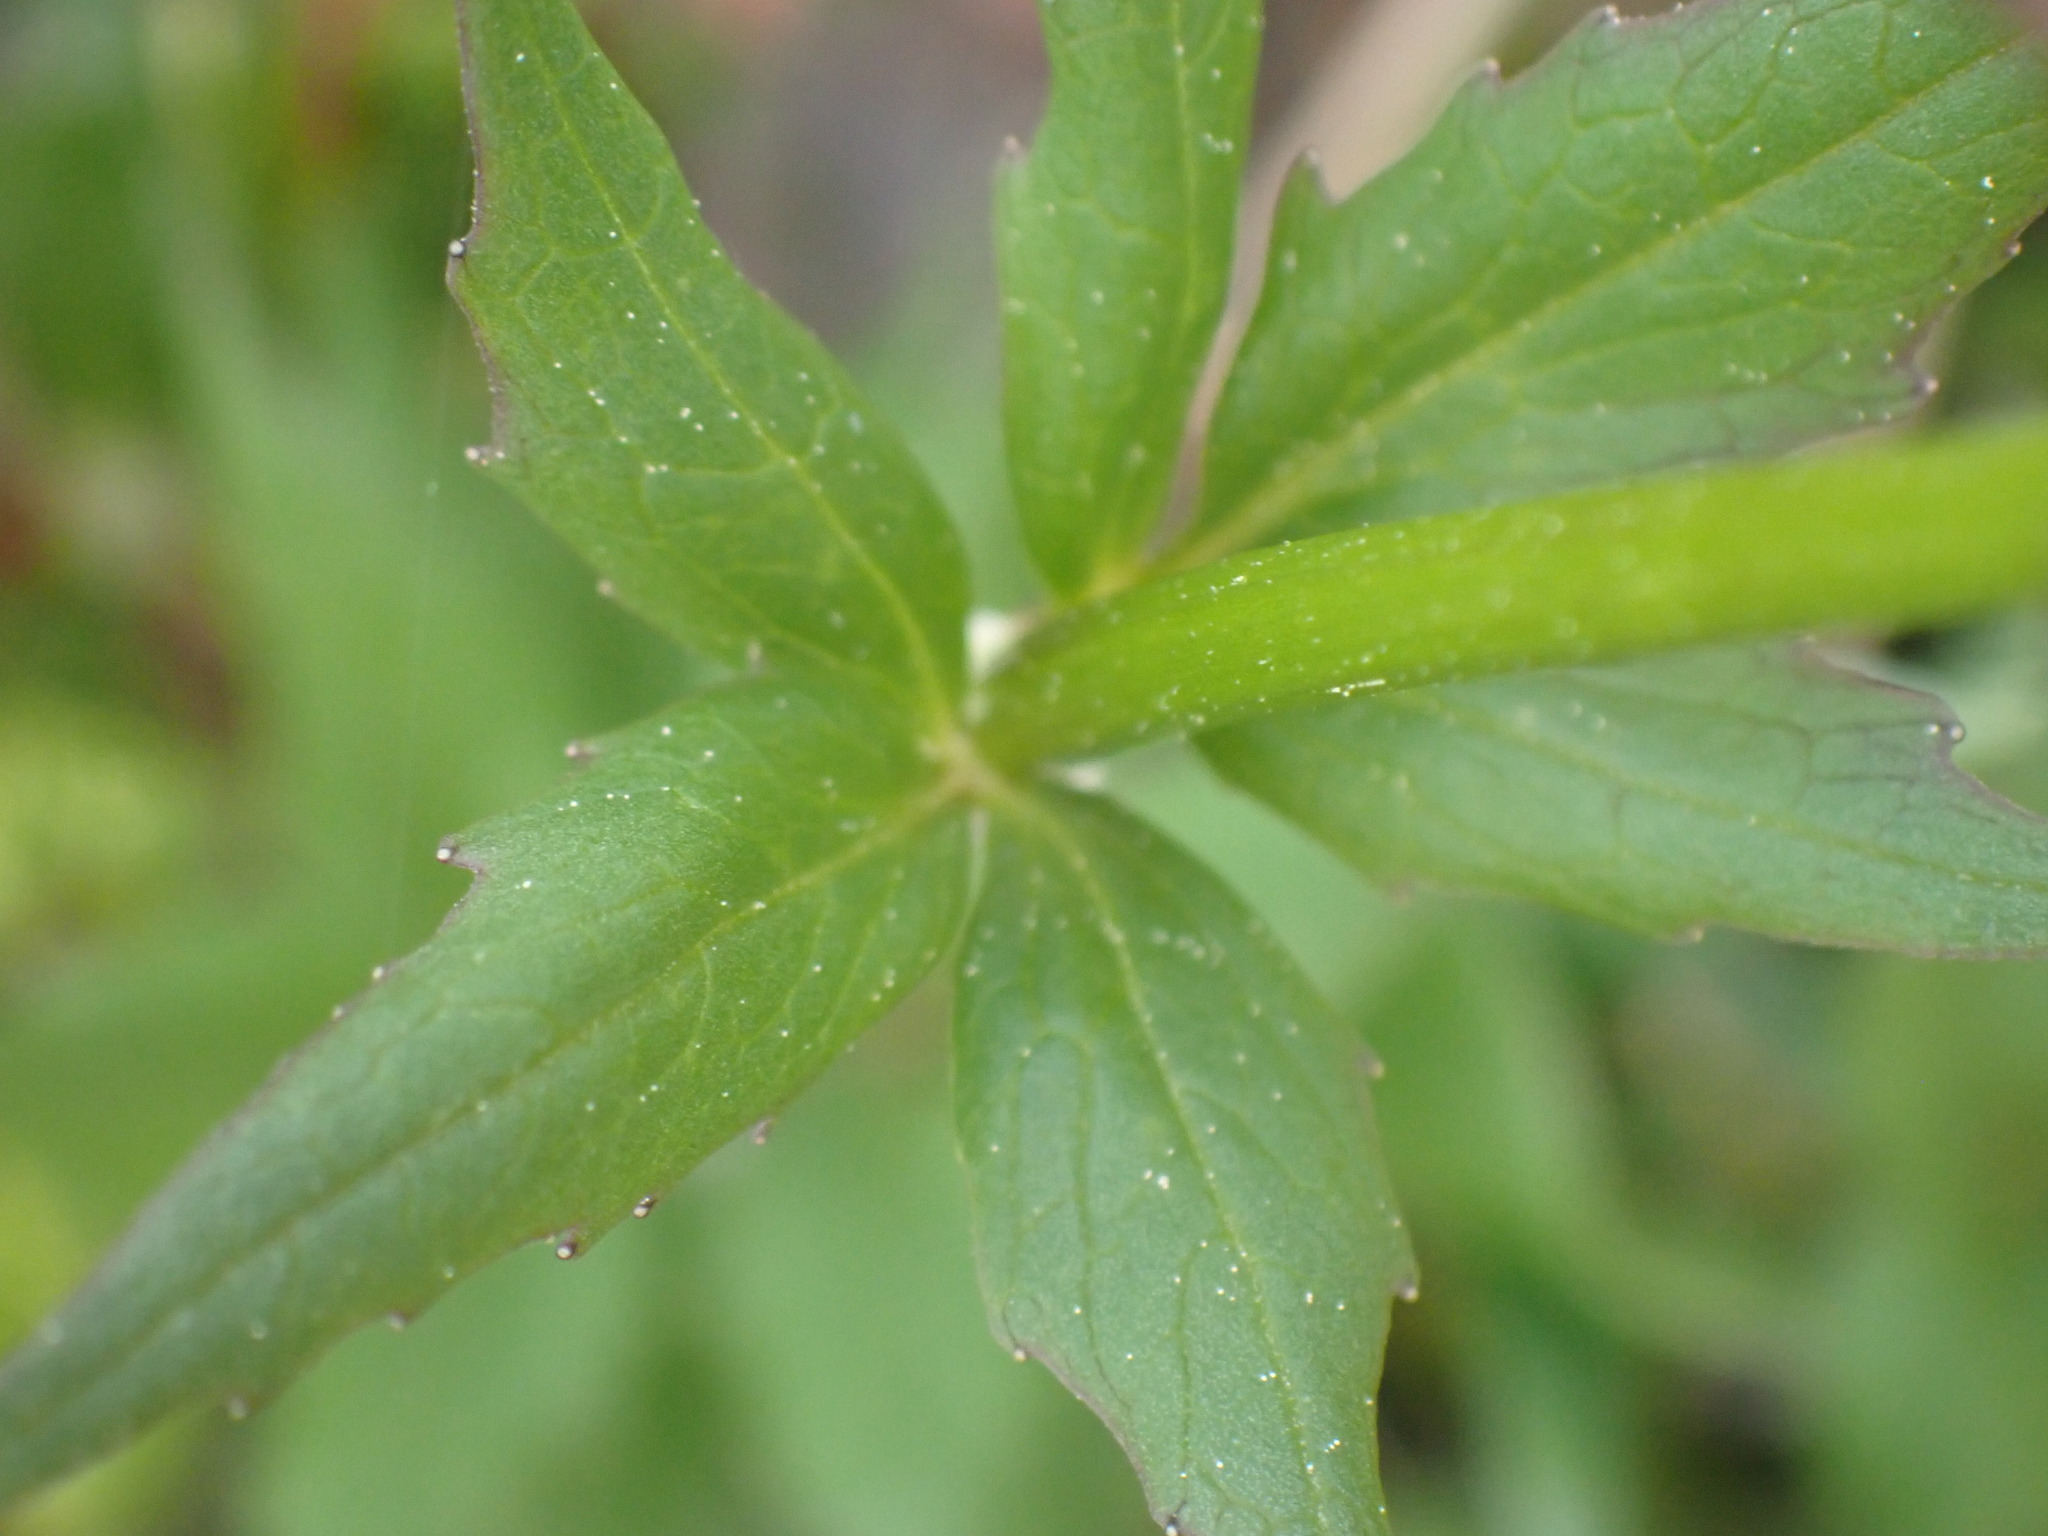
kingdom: Plantae
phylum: Tracheophyta
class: Magnoliopsida
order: Dipsacales
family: Caprifoliaceae
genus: Valeriana
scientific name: Valeriana sitchensis
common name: Pacific valerian
